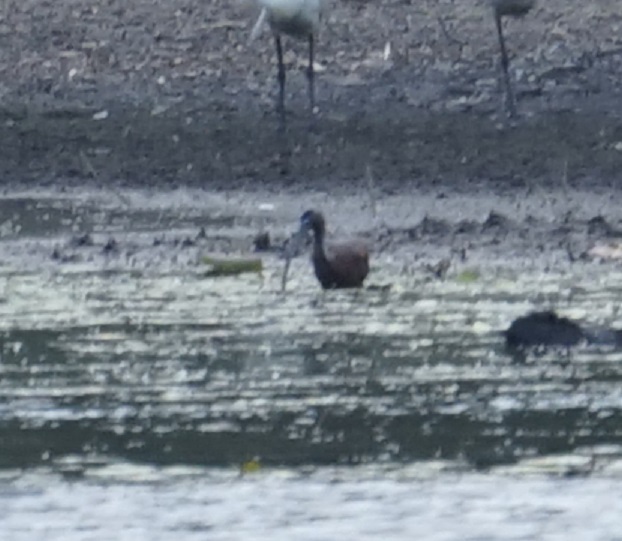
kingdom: Animalia
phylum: Chordata
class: Aves
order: Pelecaniformes
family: Threskiornithidae
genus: Plegadis
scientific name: Plegadis falcinellus
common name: Glossy ibis
